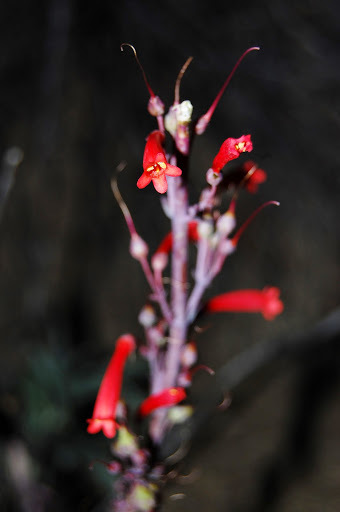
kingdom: Plantae
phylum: Tracheophyta
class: Magnoliopsida
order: Lamiales
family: Plantaginaceae
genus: Penstemon
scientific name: Penstemon centranthifolius
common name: Scarlet bugler
